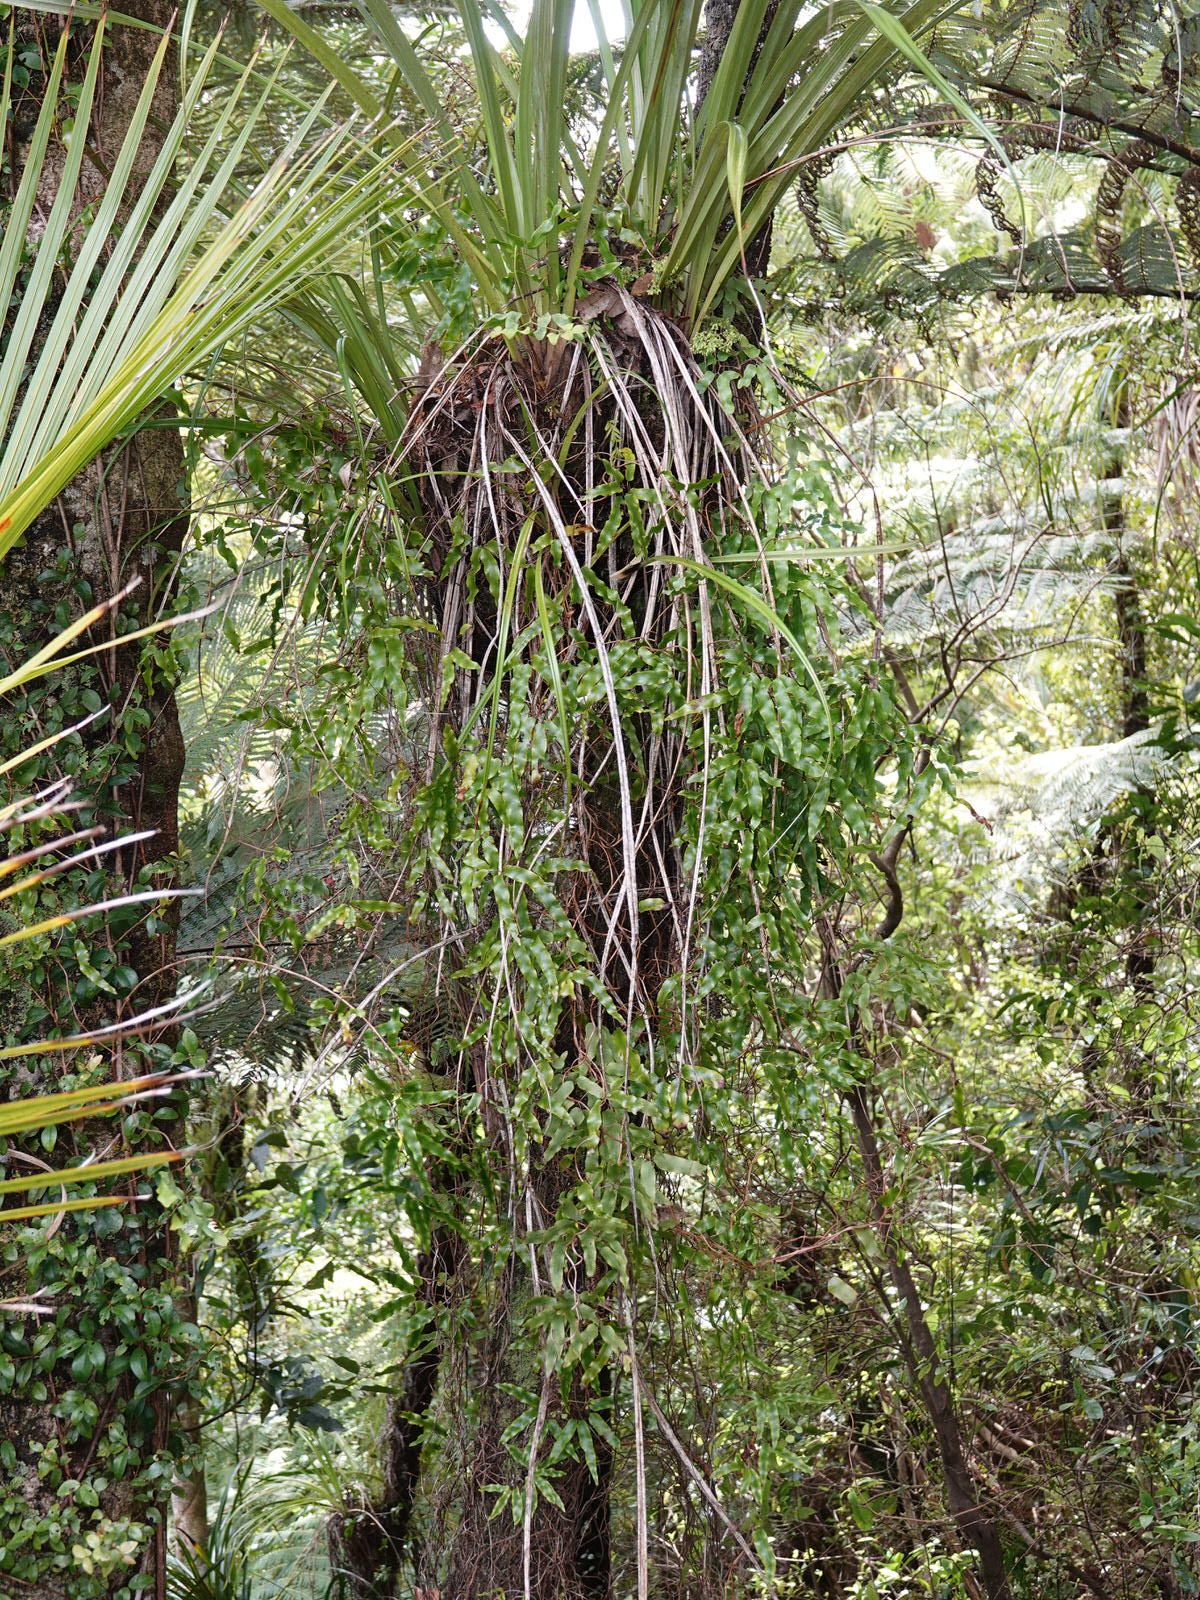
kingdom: Plantae
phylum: Tracheophyta
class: Polypodiopsida
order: Schizaeales
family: Lygodiaceae
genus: Lygodium
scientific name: Lygodium articulatum
